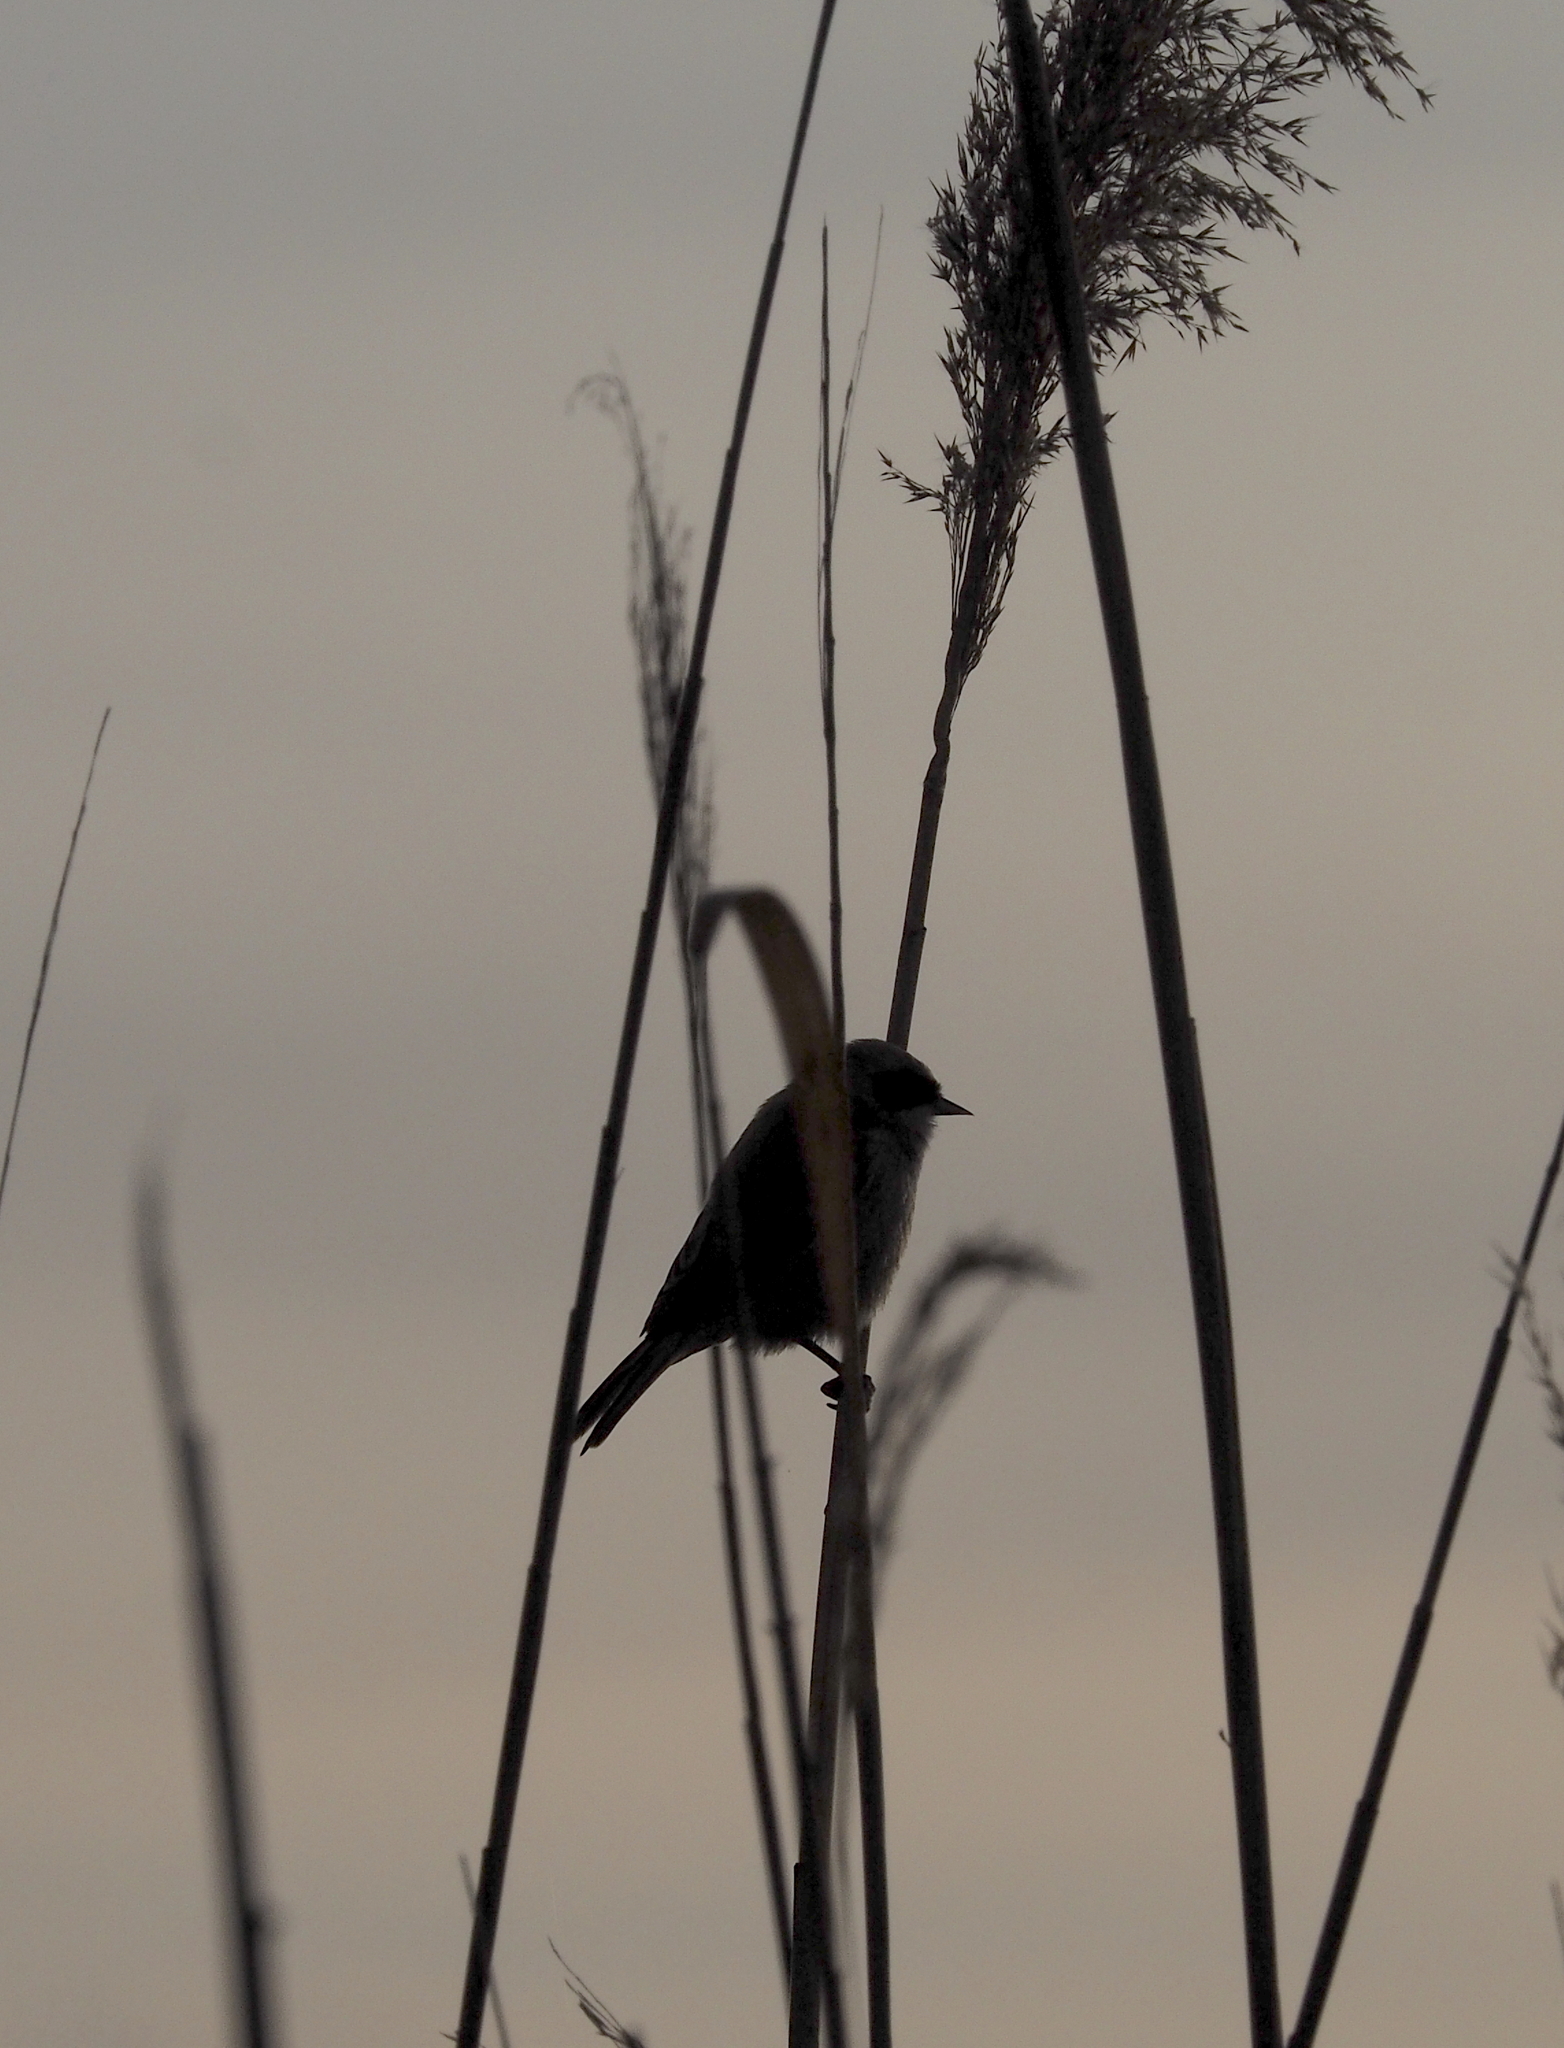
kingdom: Animalia
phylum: Chordata
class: Aves
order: Passeriformes
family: Remizidae
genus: Remiz
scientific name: Remiz pendulinus
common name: Eurasian penduline tit
